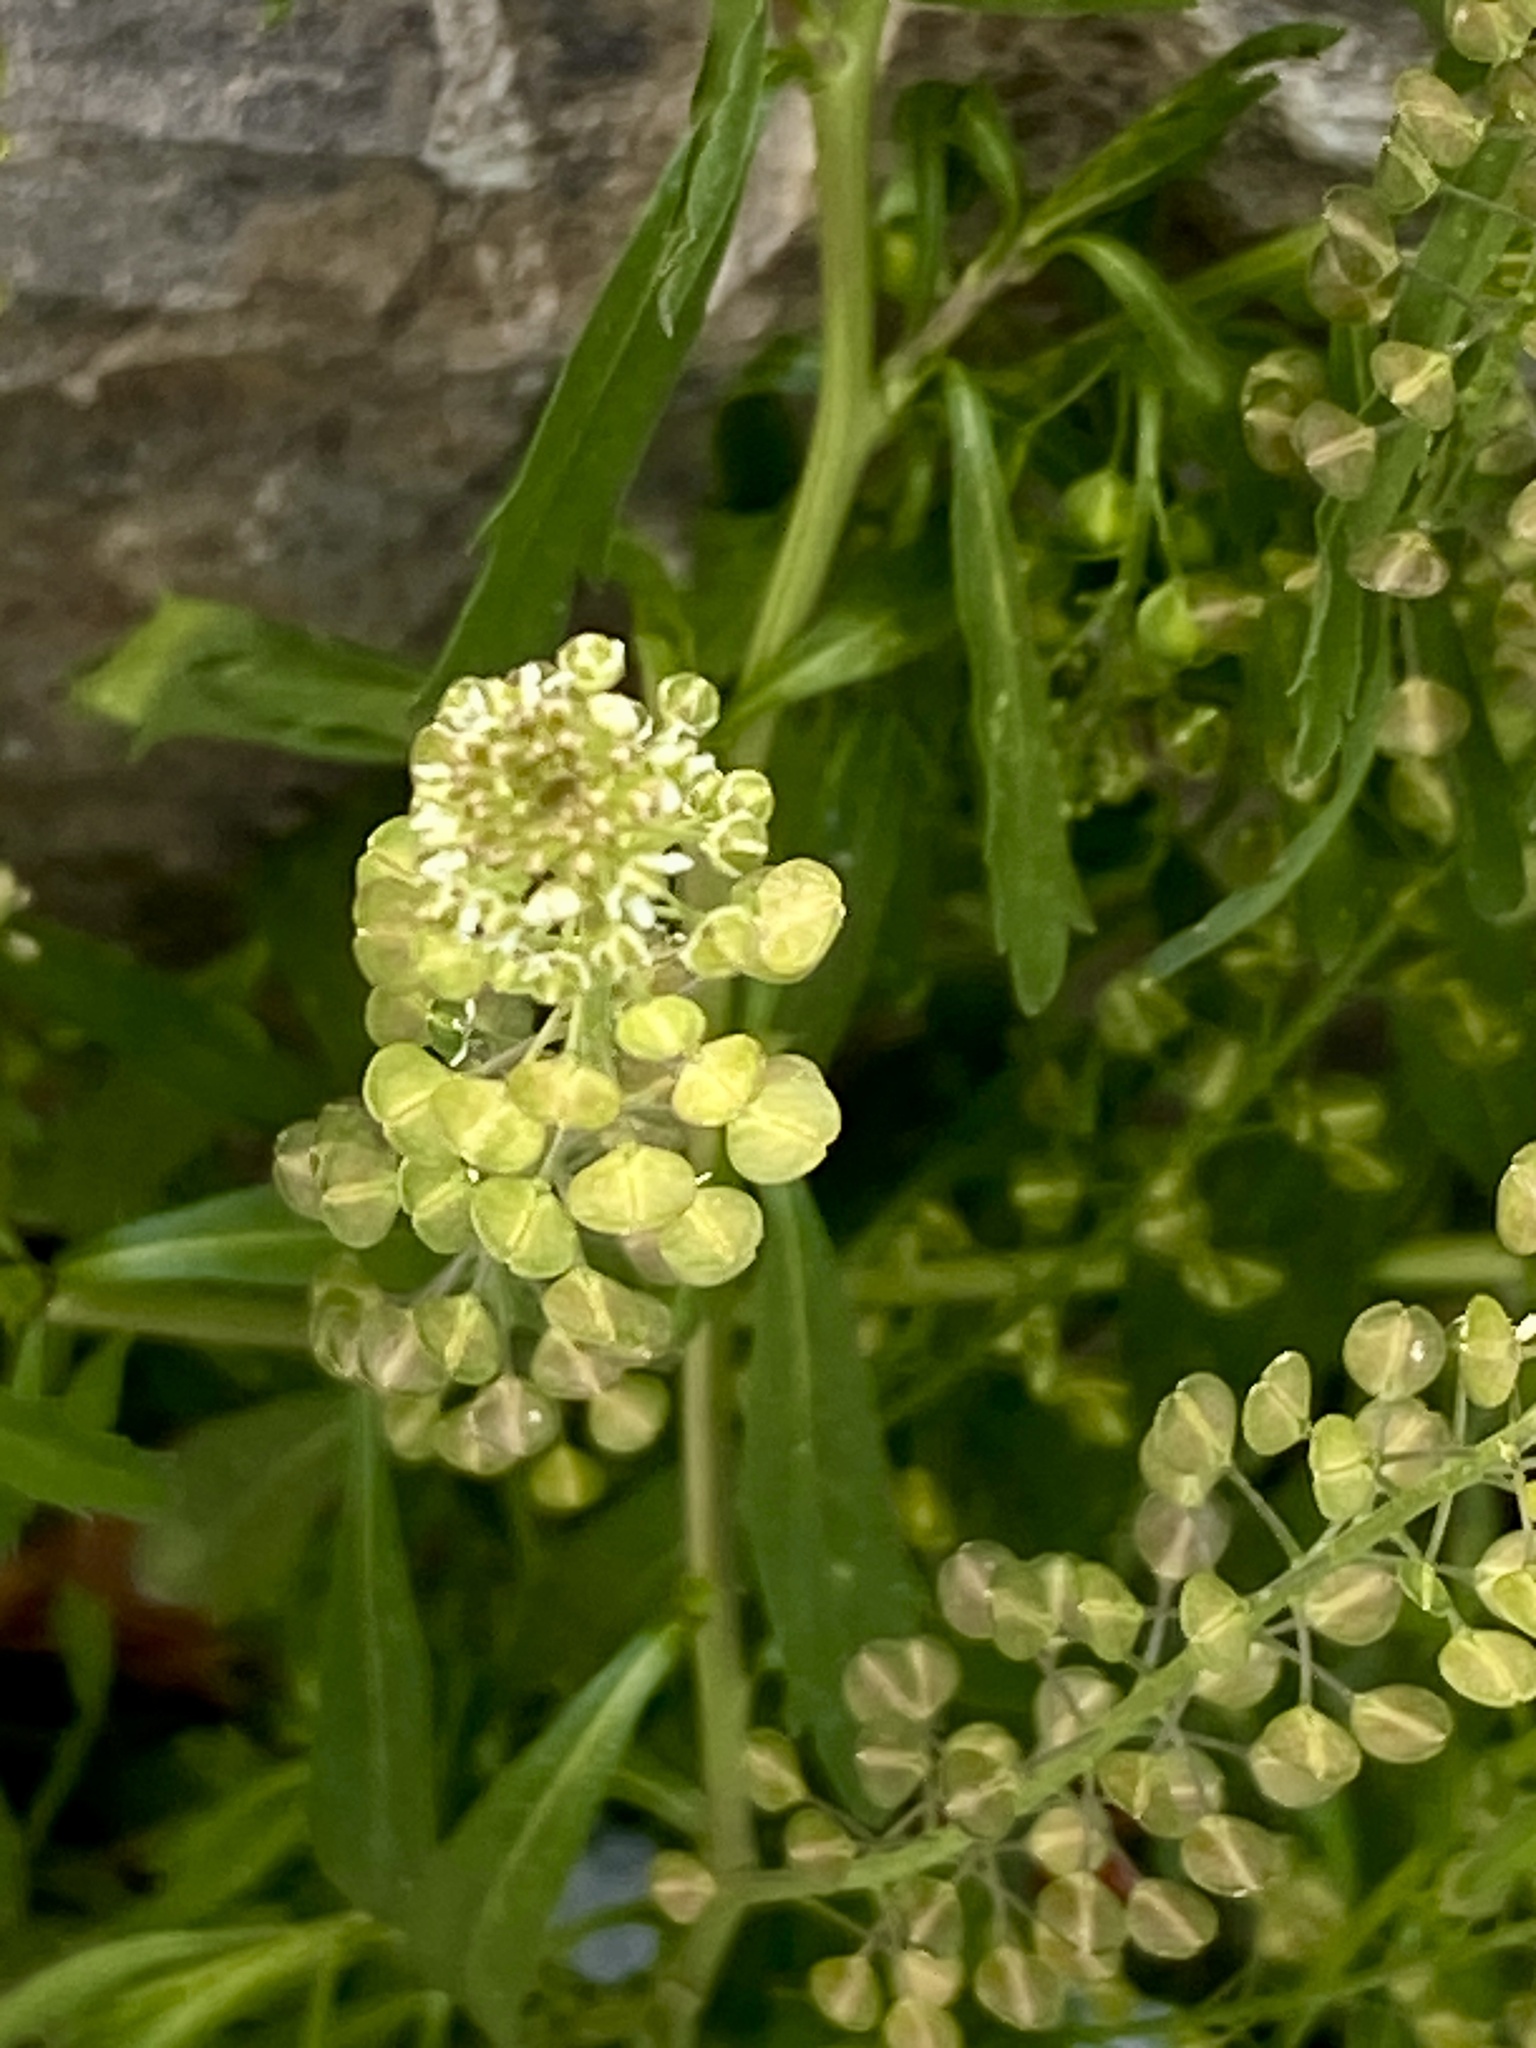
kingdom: Plantae
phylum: Tracheophyta
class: Magnoliopsida
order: Brassicales
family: Brassicaceae
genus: Lepidium
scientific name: Lepidium virginicum
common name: Least pepperwort
